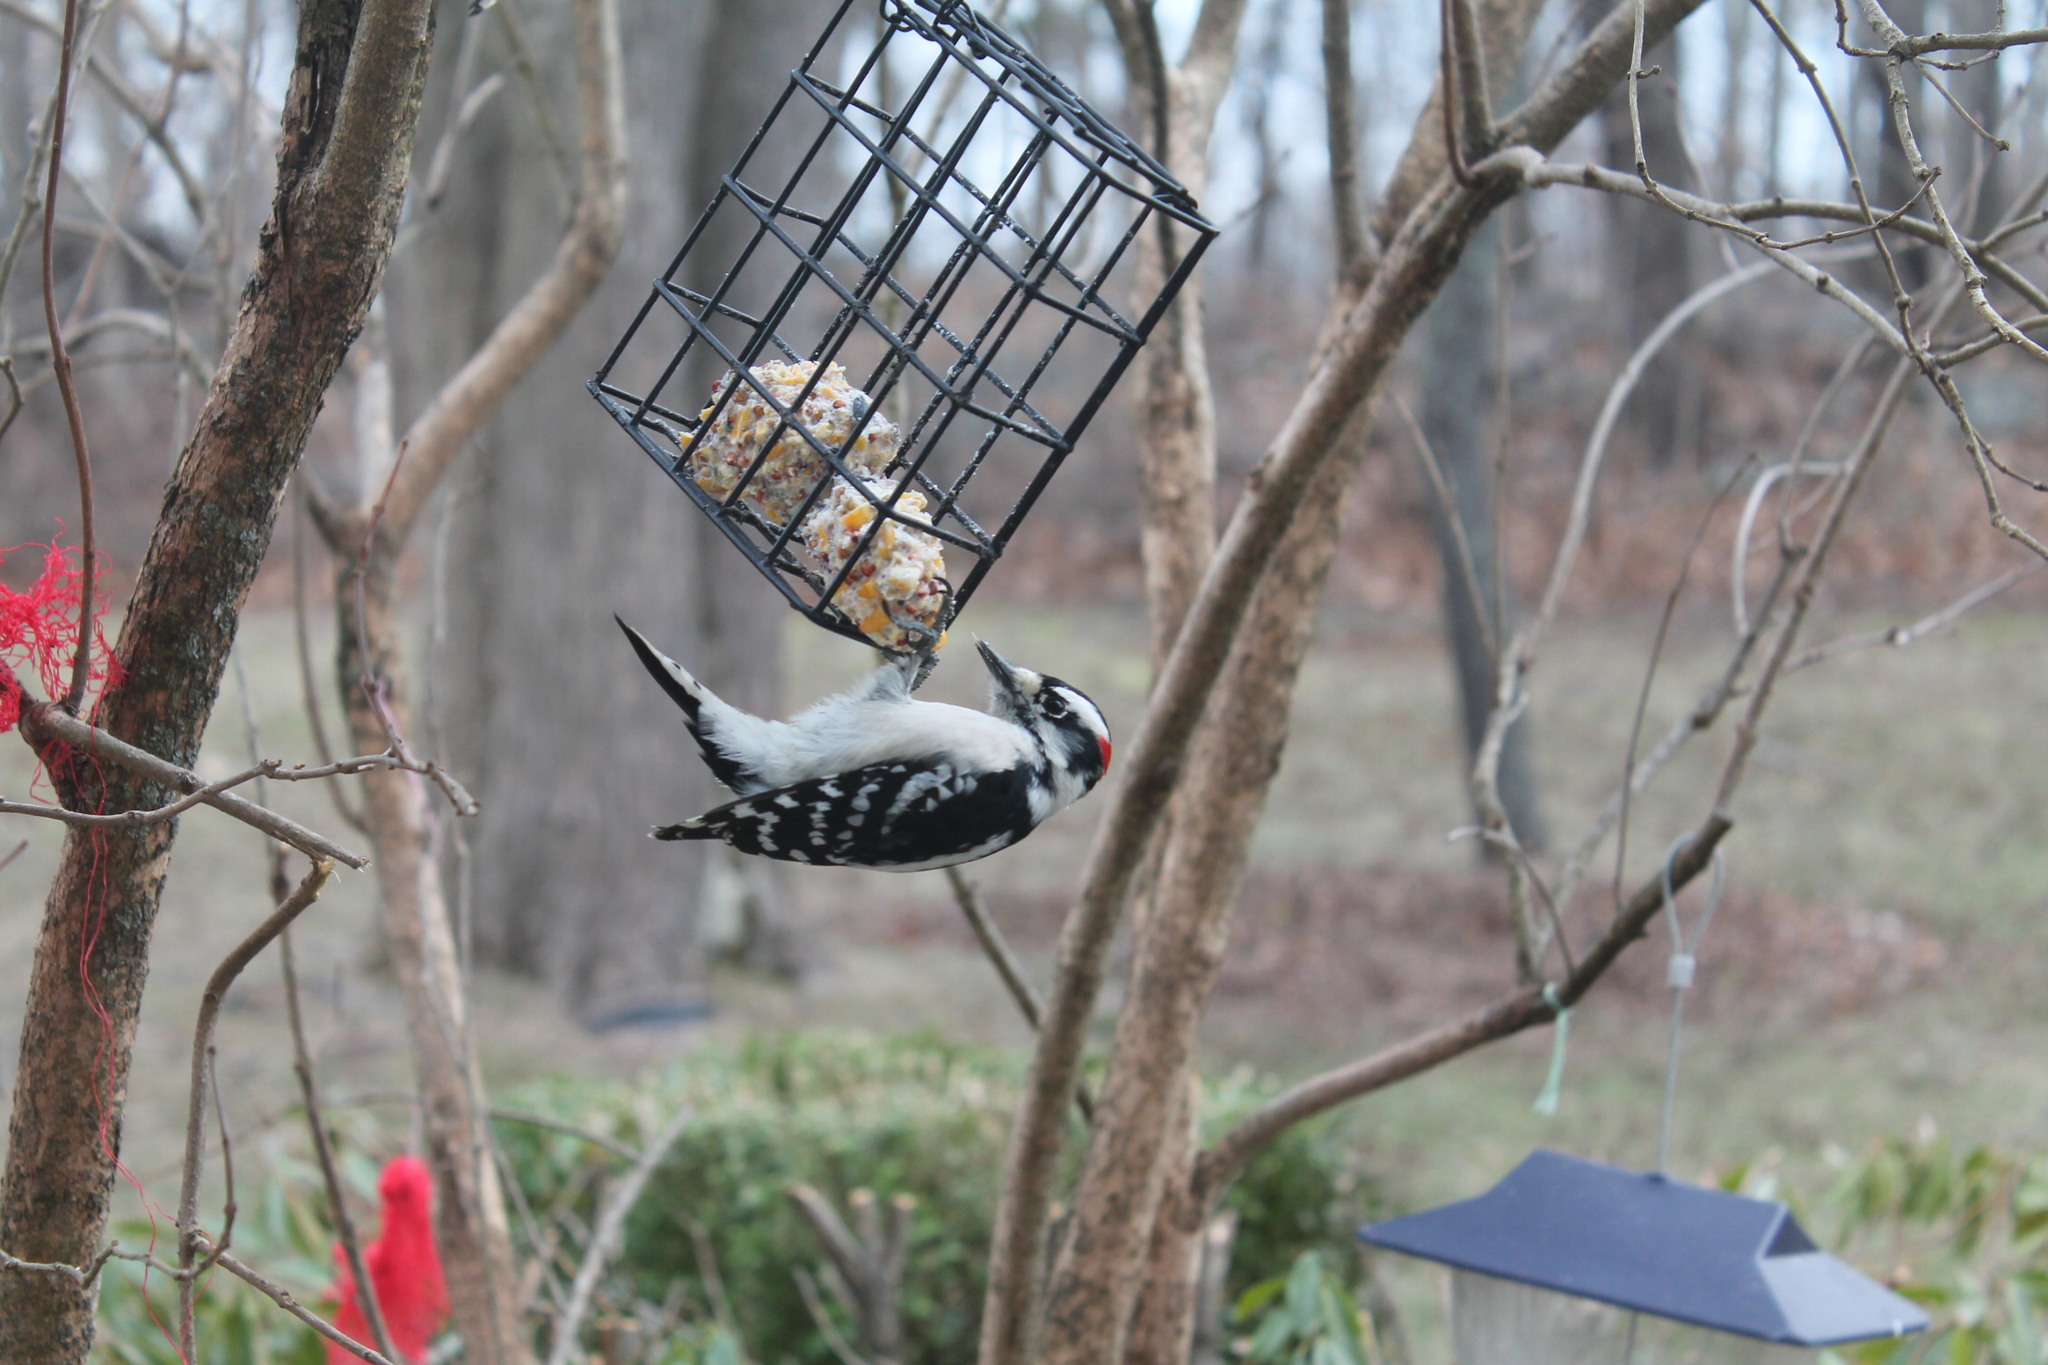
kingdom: Animalia
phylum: Chordata
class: Aves
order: Piciformes
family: Picidae
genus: Dryobates
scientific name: Dryobates pubescens
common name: Downy woodpecker
